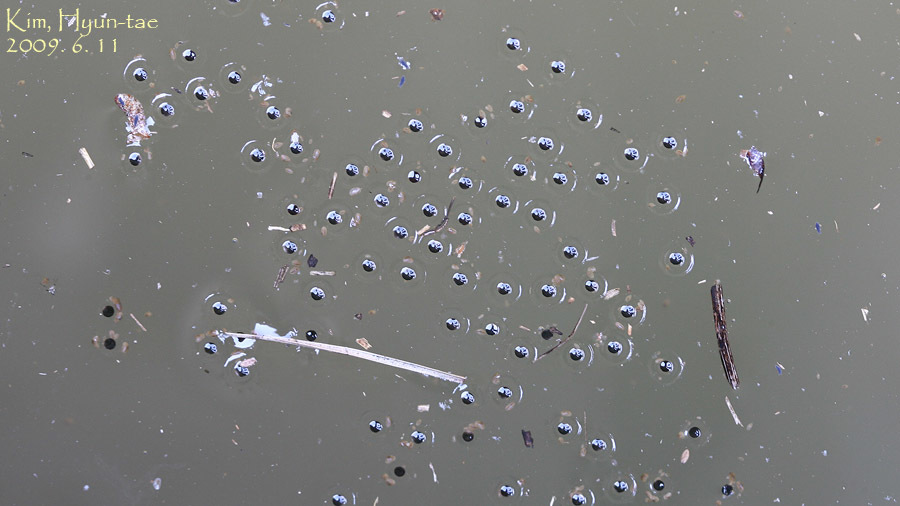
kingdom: Animalia
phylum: Chordata
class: Amphibia
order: Anura
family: Microhylidae
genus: Kaloula
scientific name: Kaloula borealis
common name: Boreal digging frog
